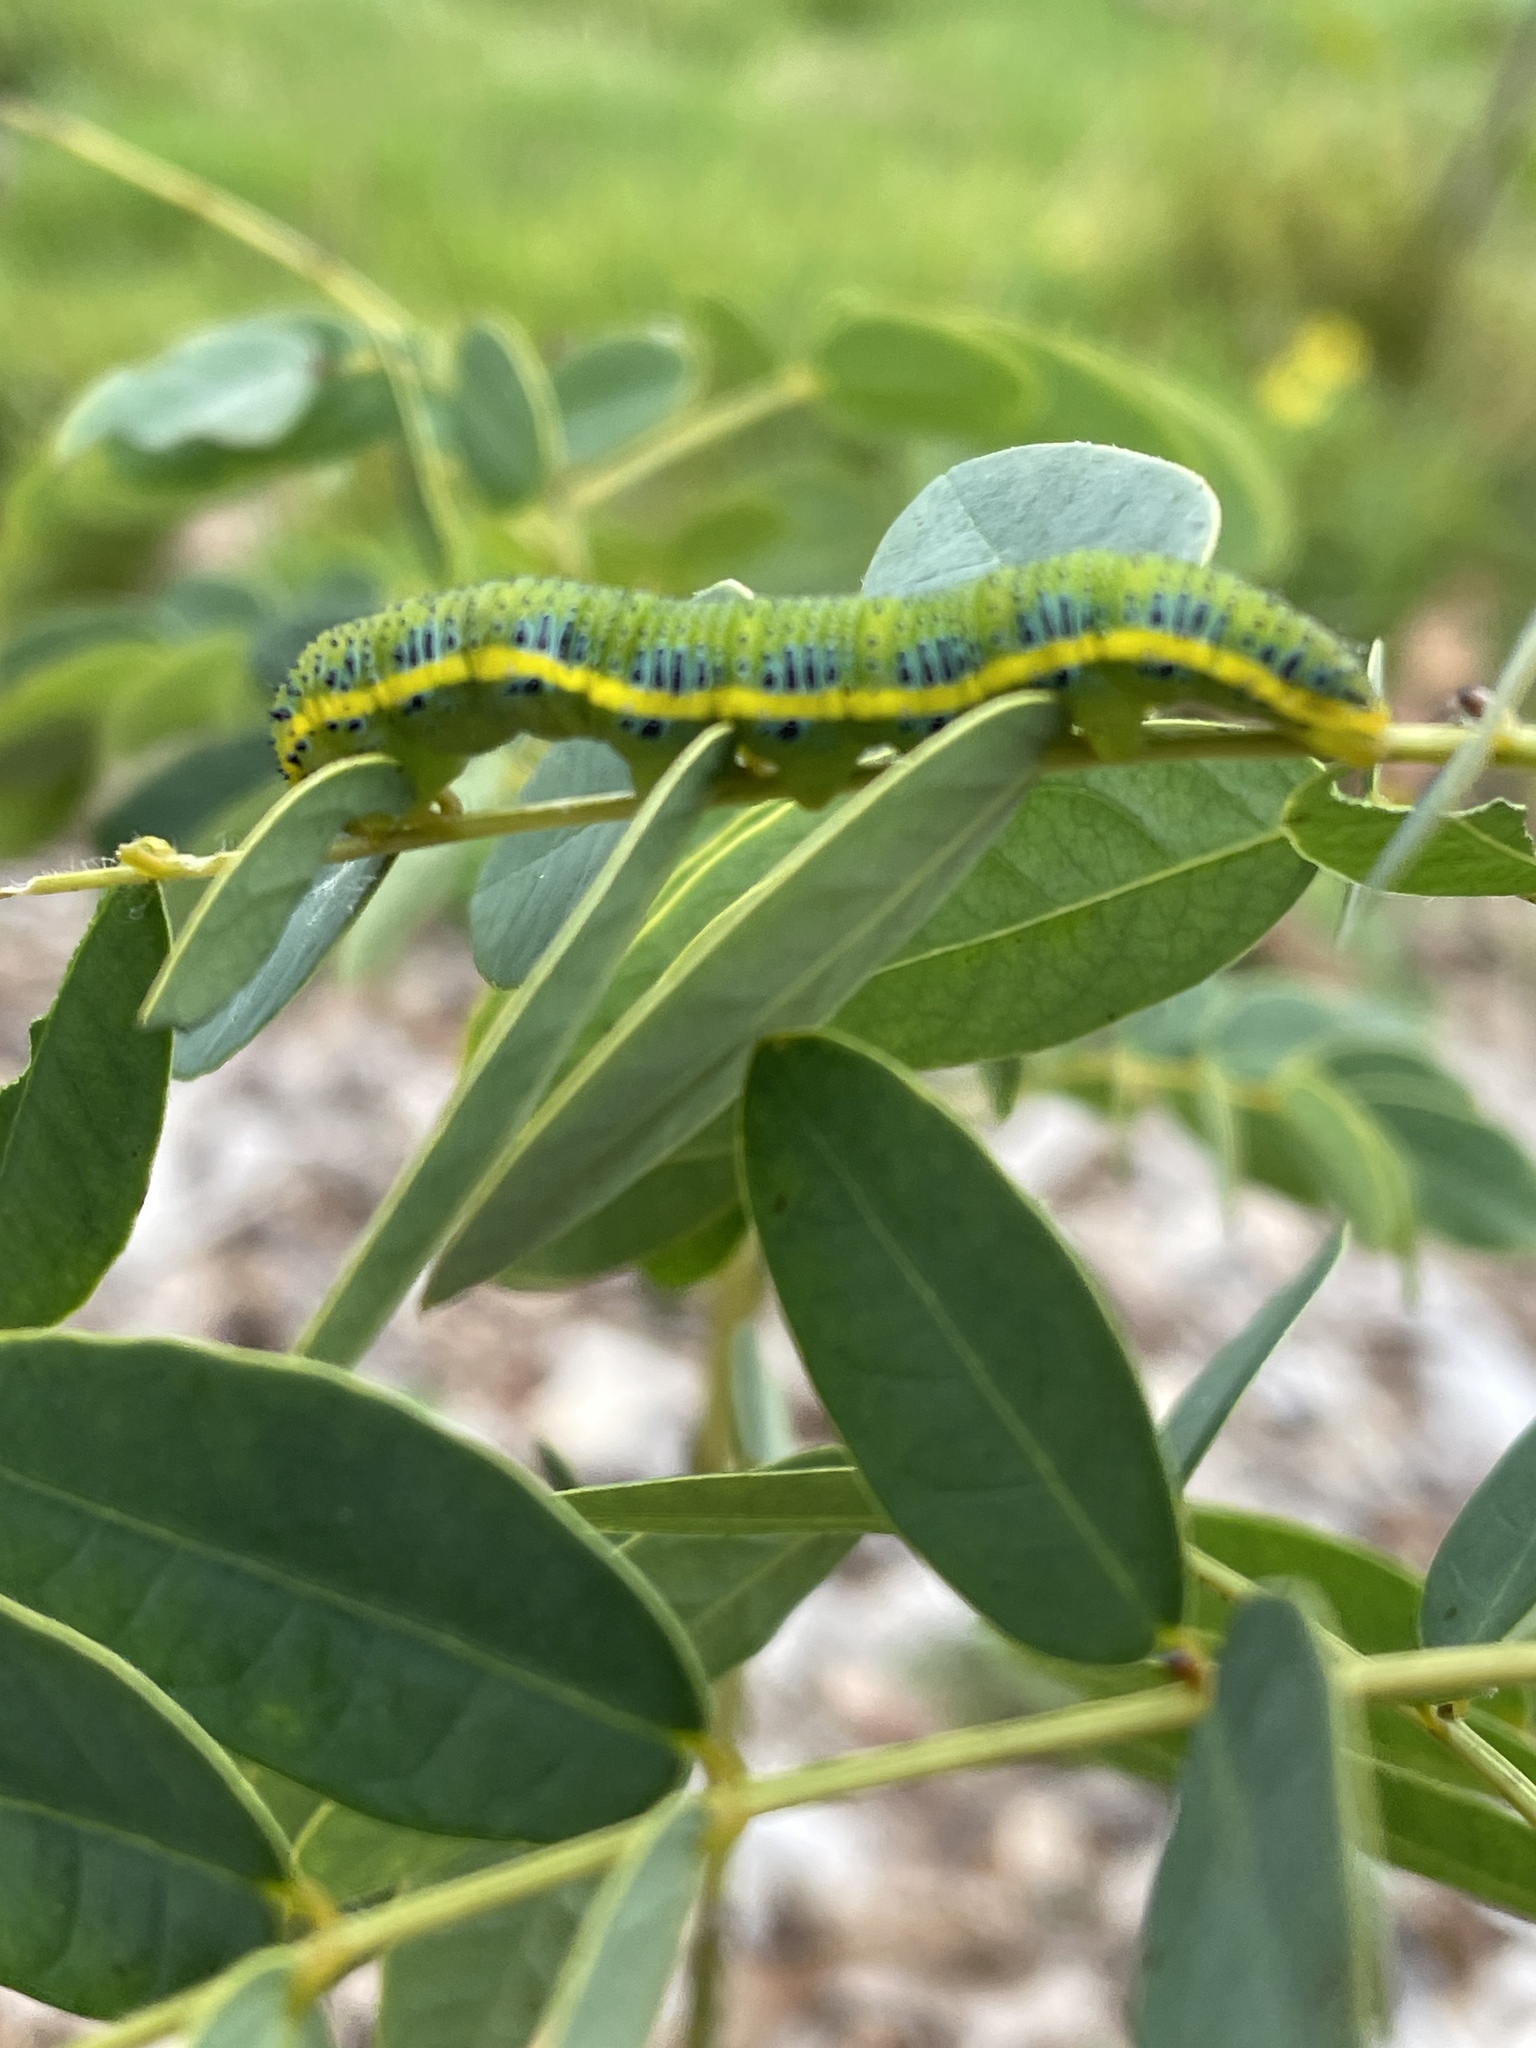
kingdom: Animalia
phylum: Arthropoda
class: Insecta
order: Lepidoptera
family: Pieridae
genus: Phoebis
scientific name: Phoebis sennae
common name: Cloudless sulphur
